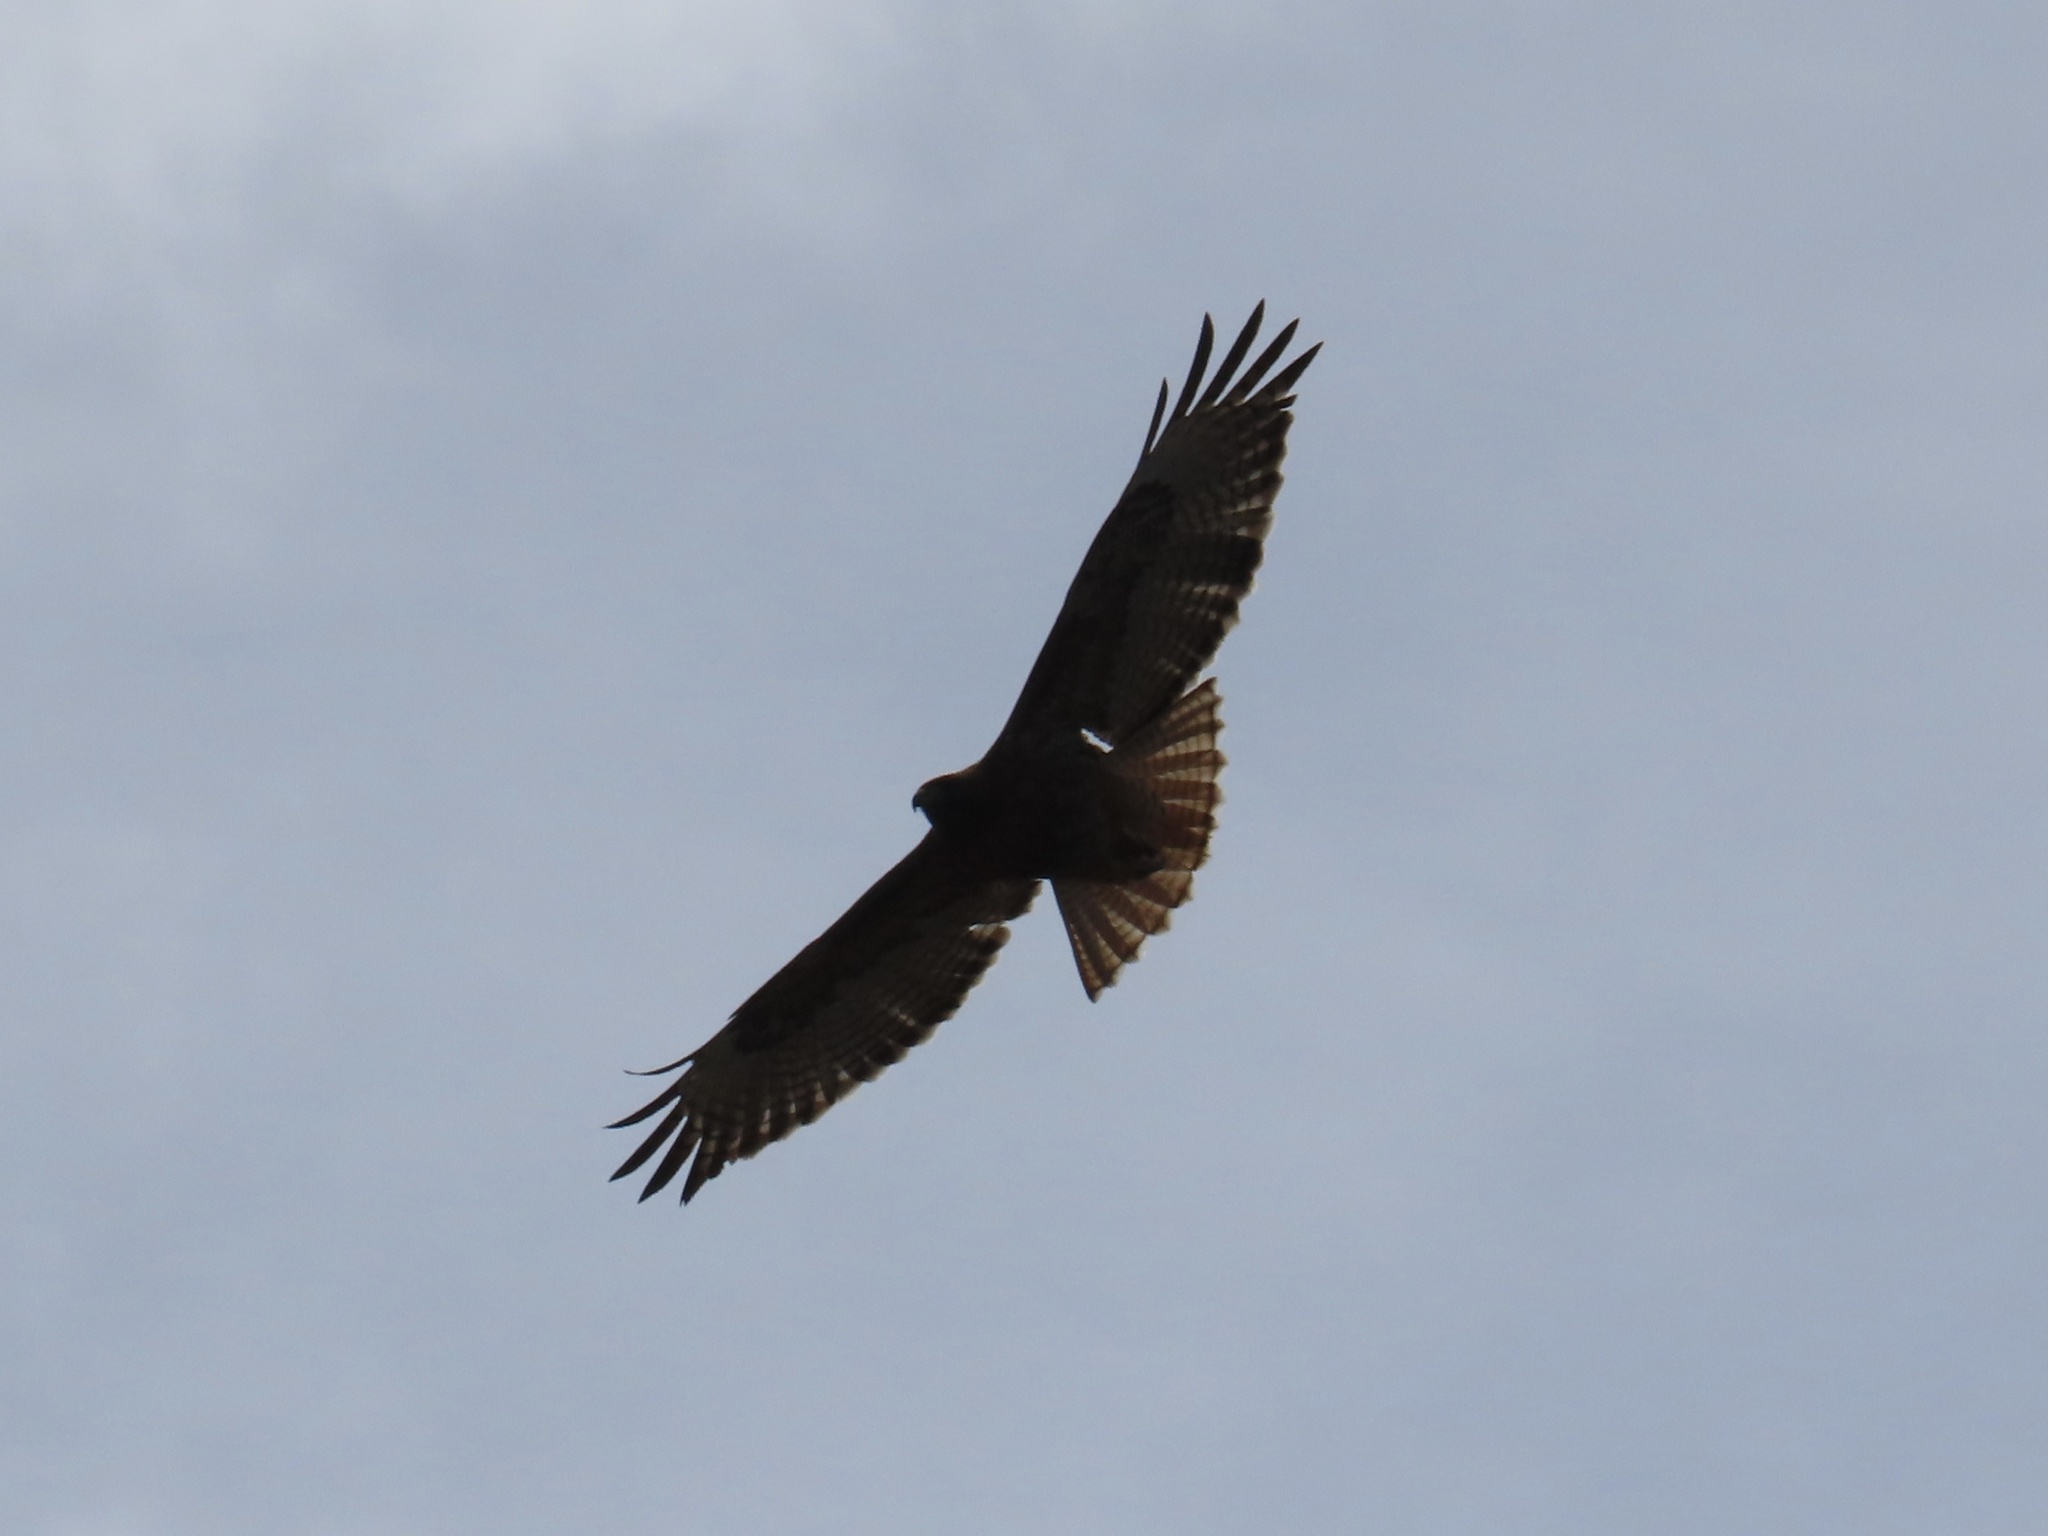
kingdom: Animalia
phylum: Chordata
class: Aves
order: Accipitriformes
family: Accipitridae
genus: Buteo
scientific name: Buteo jamaicensis
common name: Red-tailed hawk
